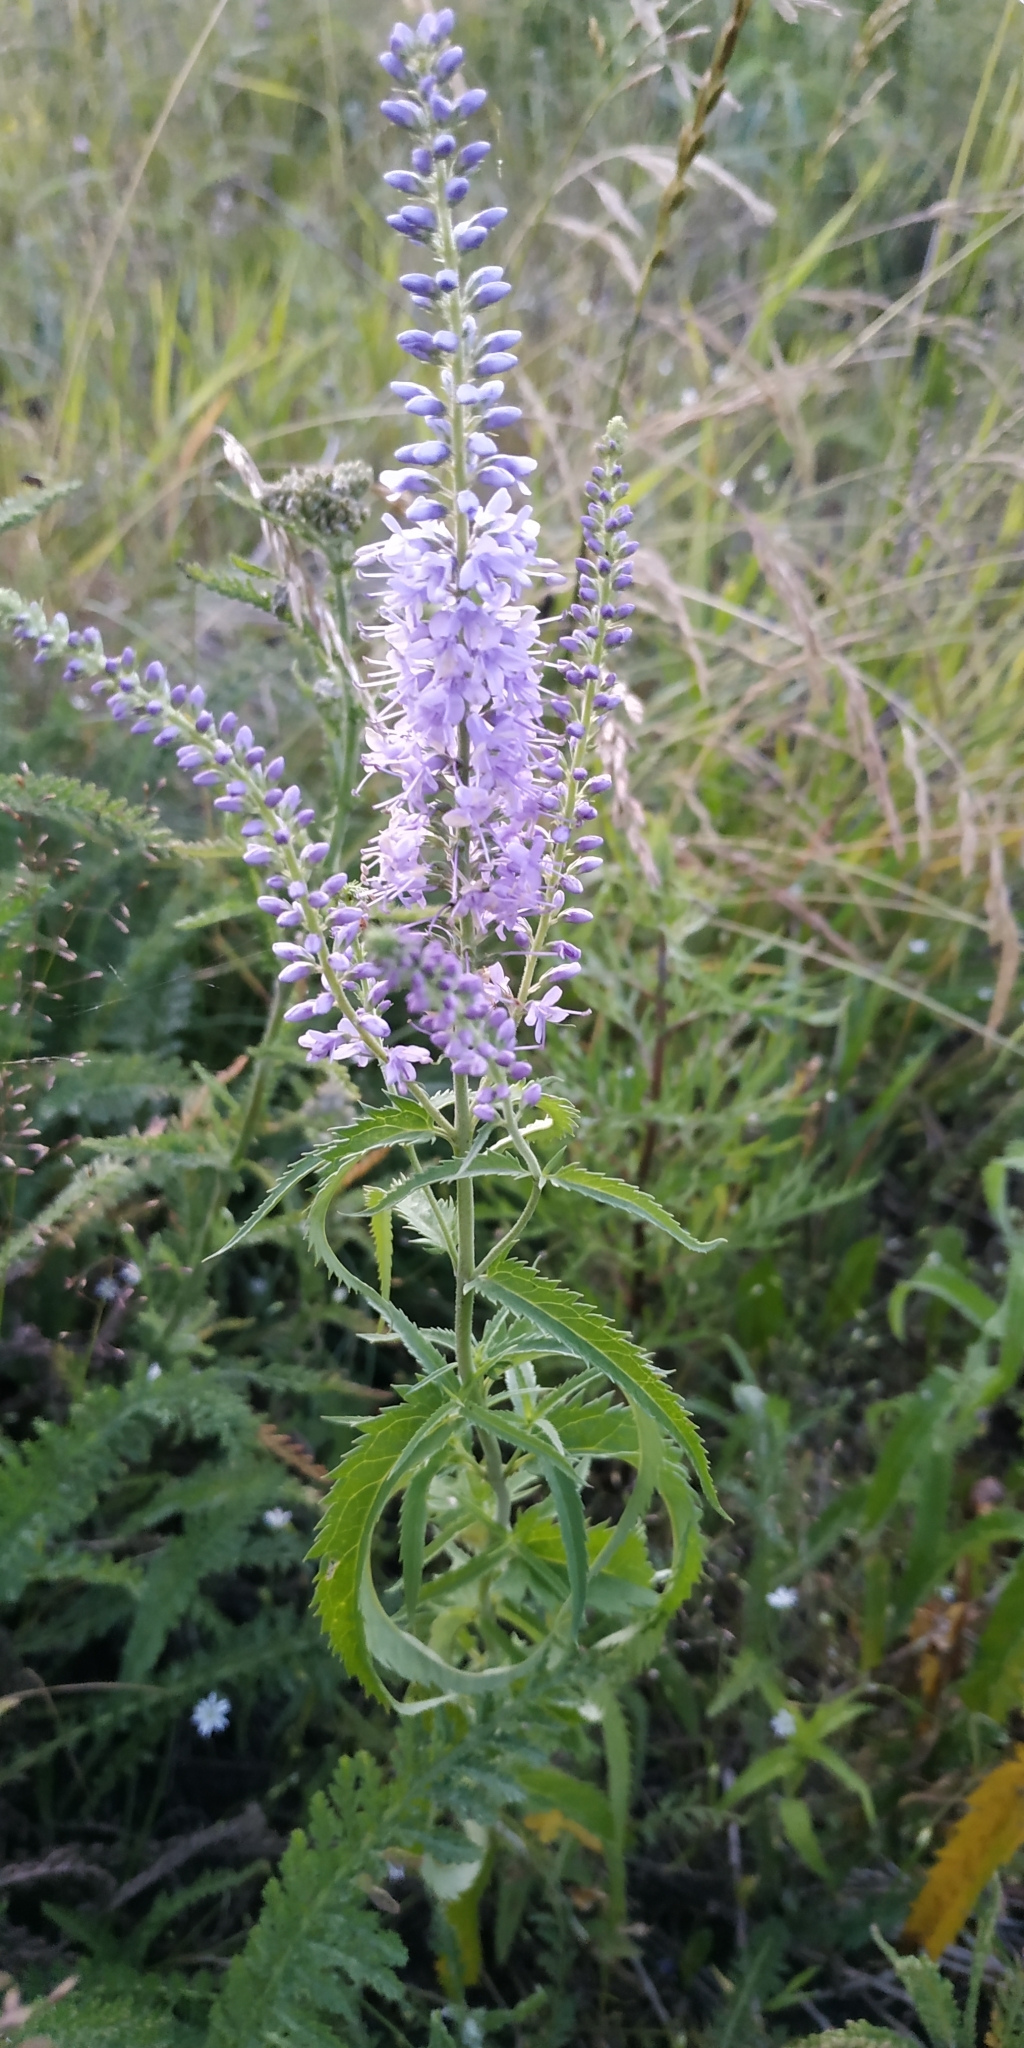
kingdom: Plantae
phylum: Tracheophyta
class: Magnoliopsida
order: Lamiales
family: Plantaginaceae
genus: Veronica
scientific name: Veronica longifolia
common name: Garden speedwell
